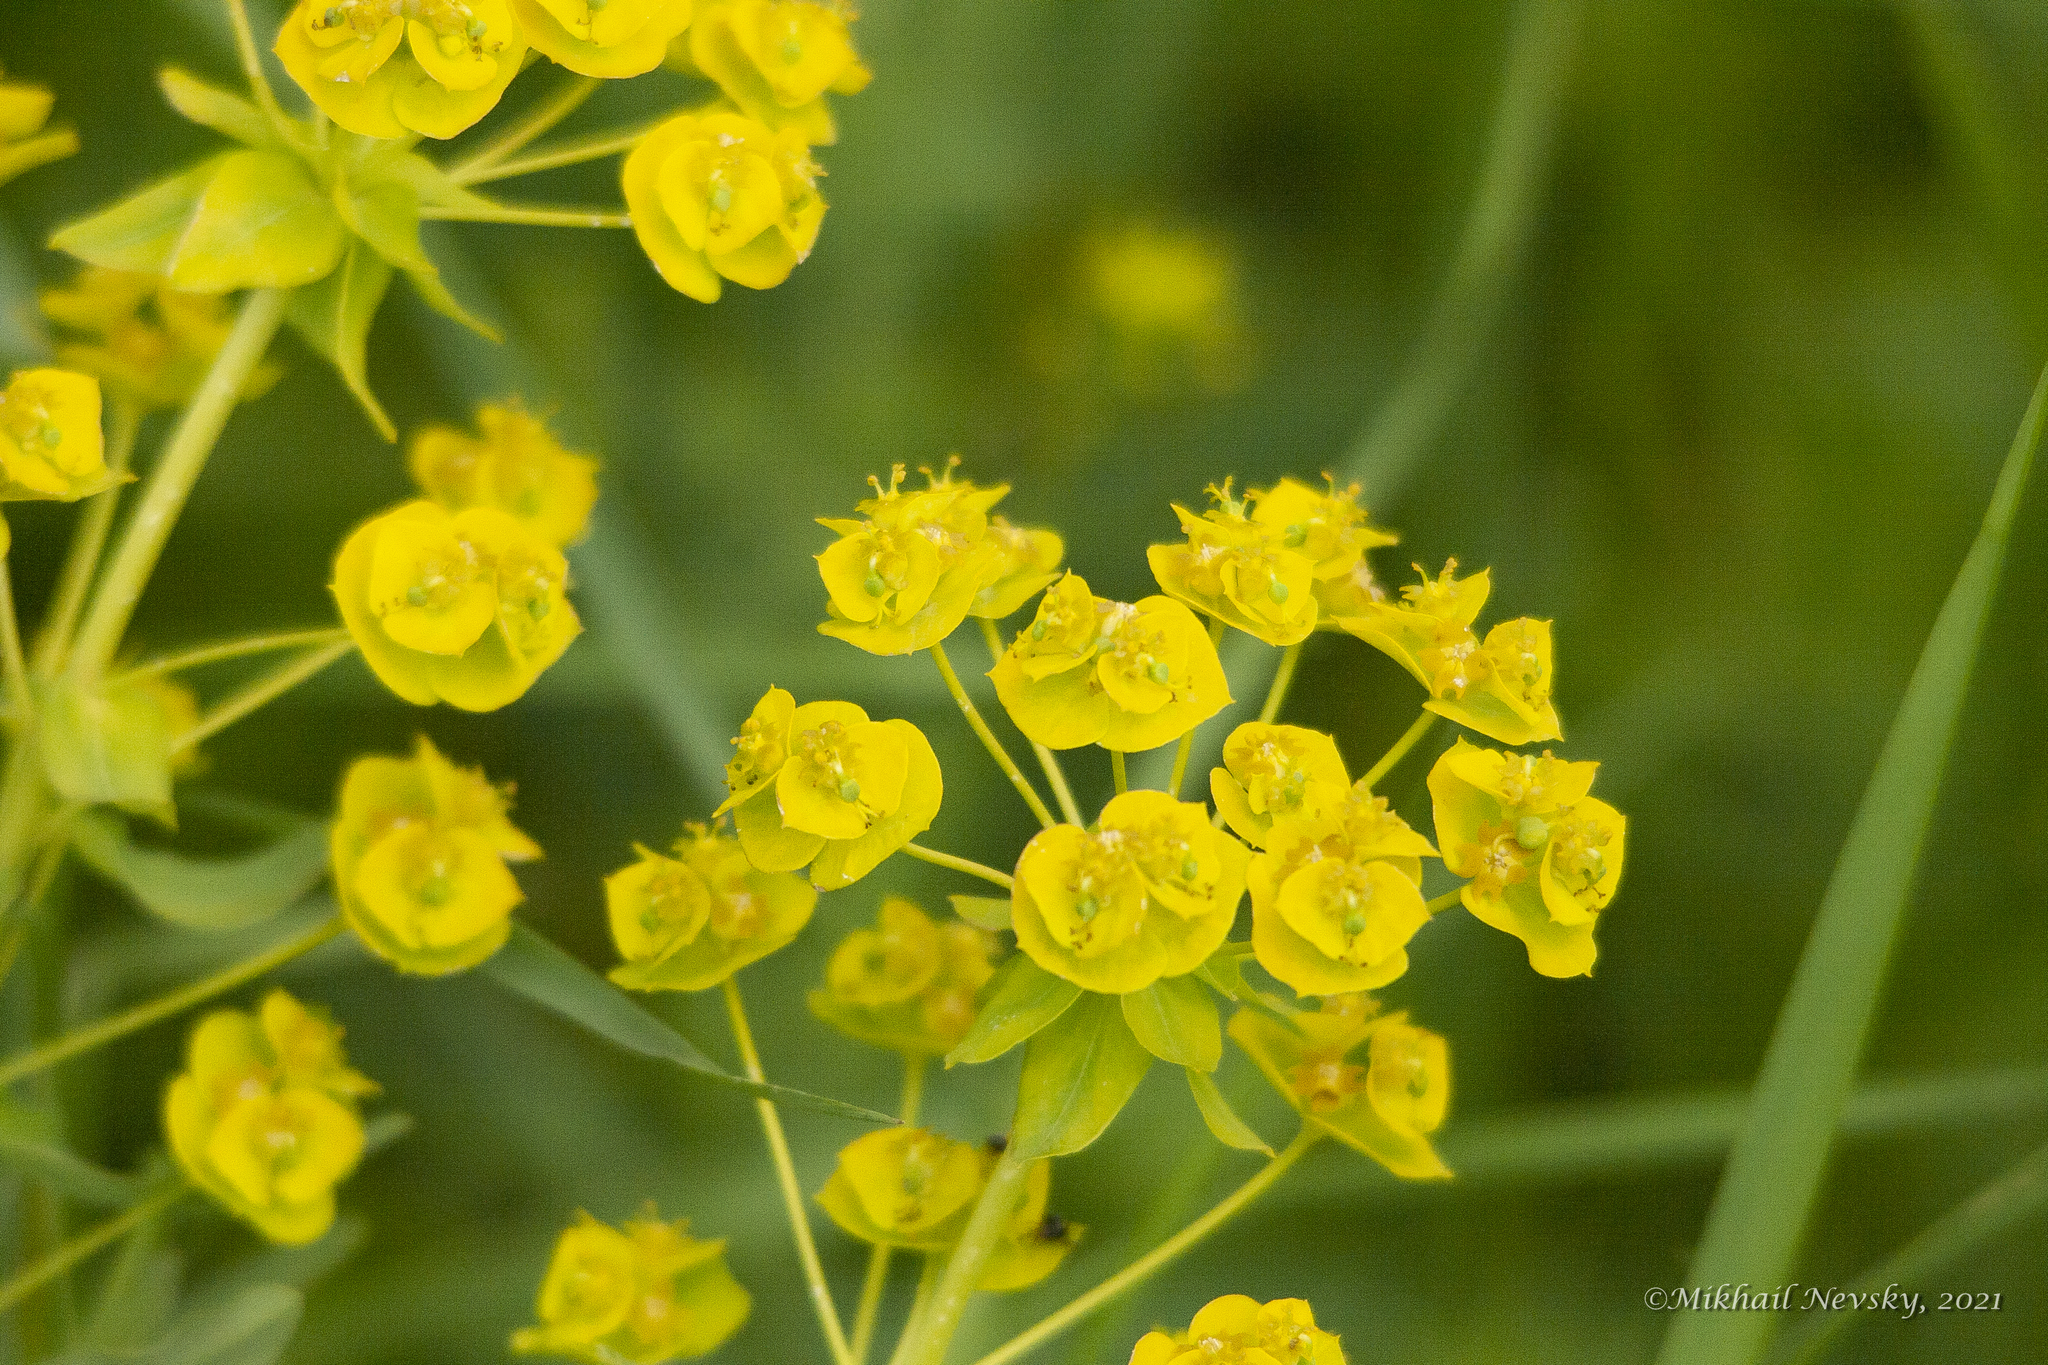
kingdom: Plantae
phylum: Tracheophyta
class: Magnoliopsida
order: Malpighiales
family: Euphorbiaceae
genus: Euphorbia
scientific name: Euphorbia virgata
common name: Leafy spurge
